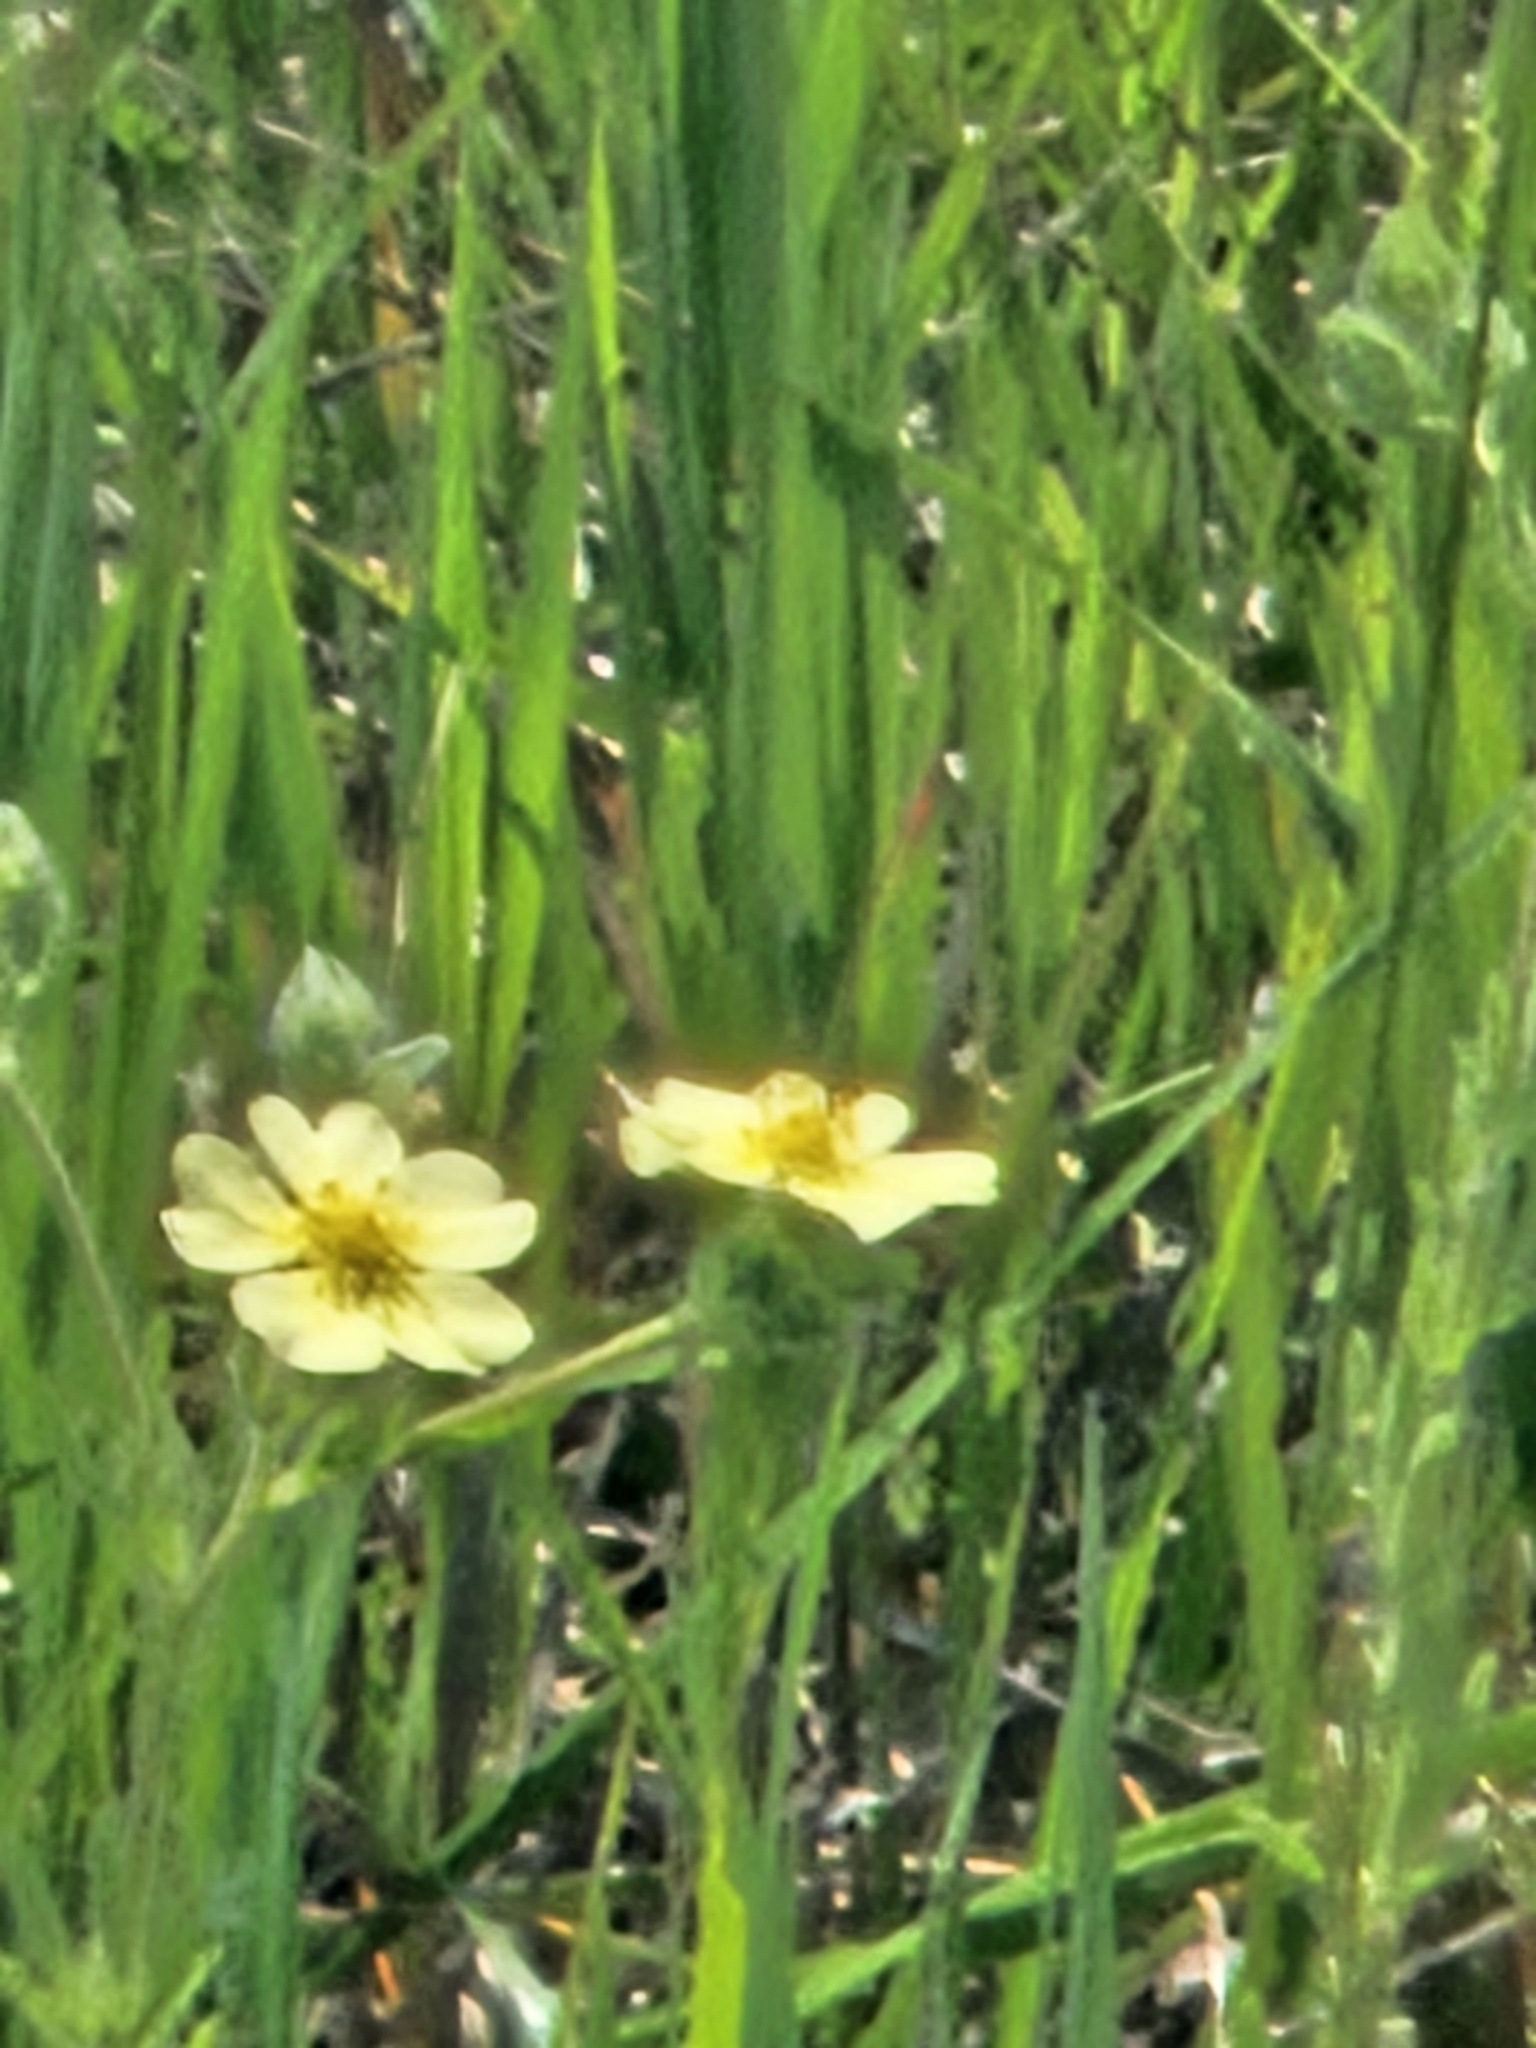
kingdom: Plantae
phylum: Tracheophyta
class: Magnoliopsida
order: Rosales
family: Rosaceae
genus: Potentilla
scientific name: Potentilla recta
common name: Sulphur cinquefoil
